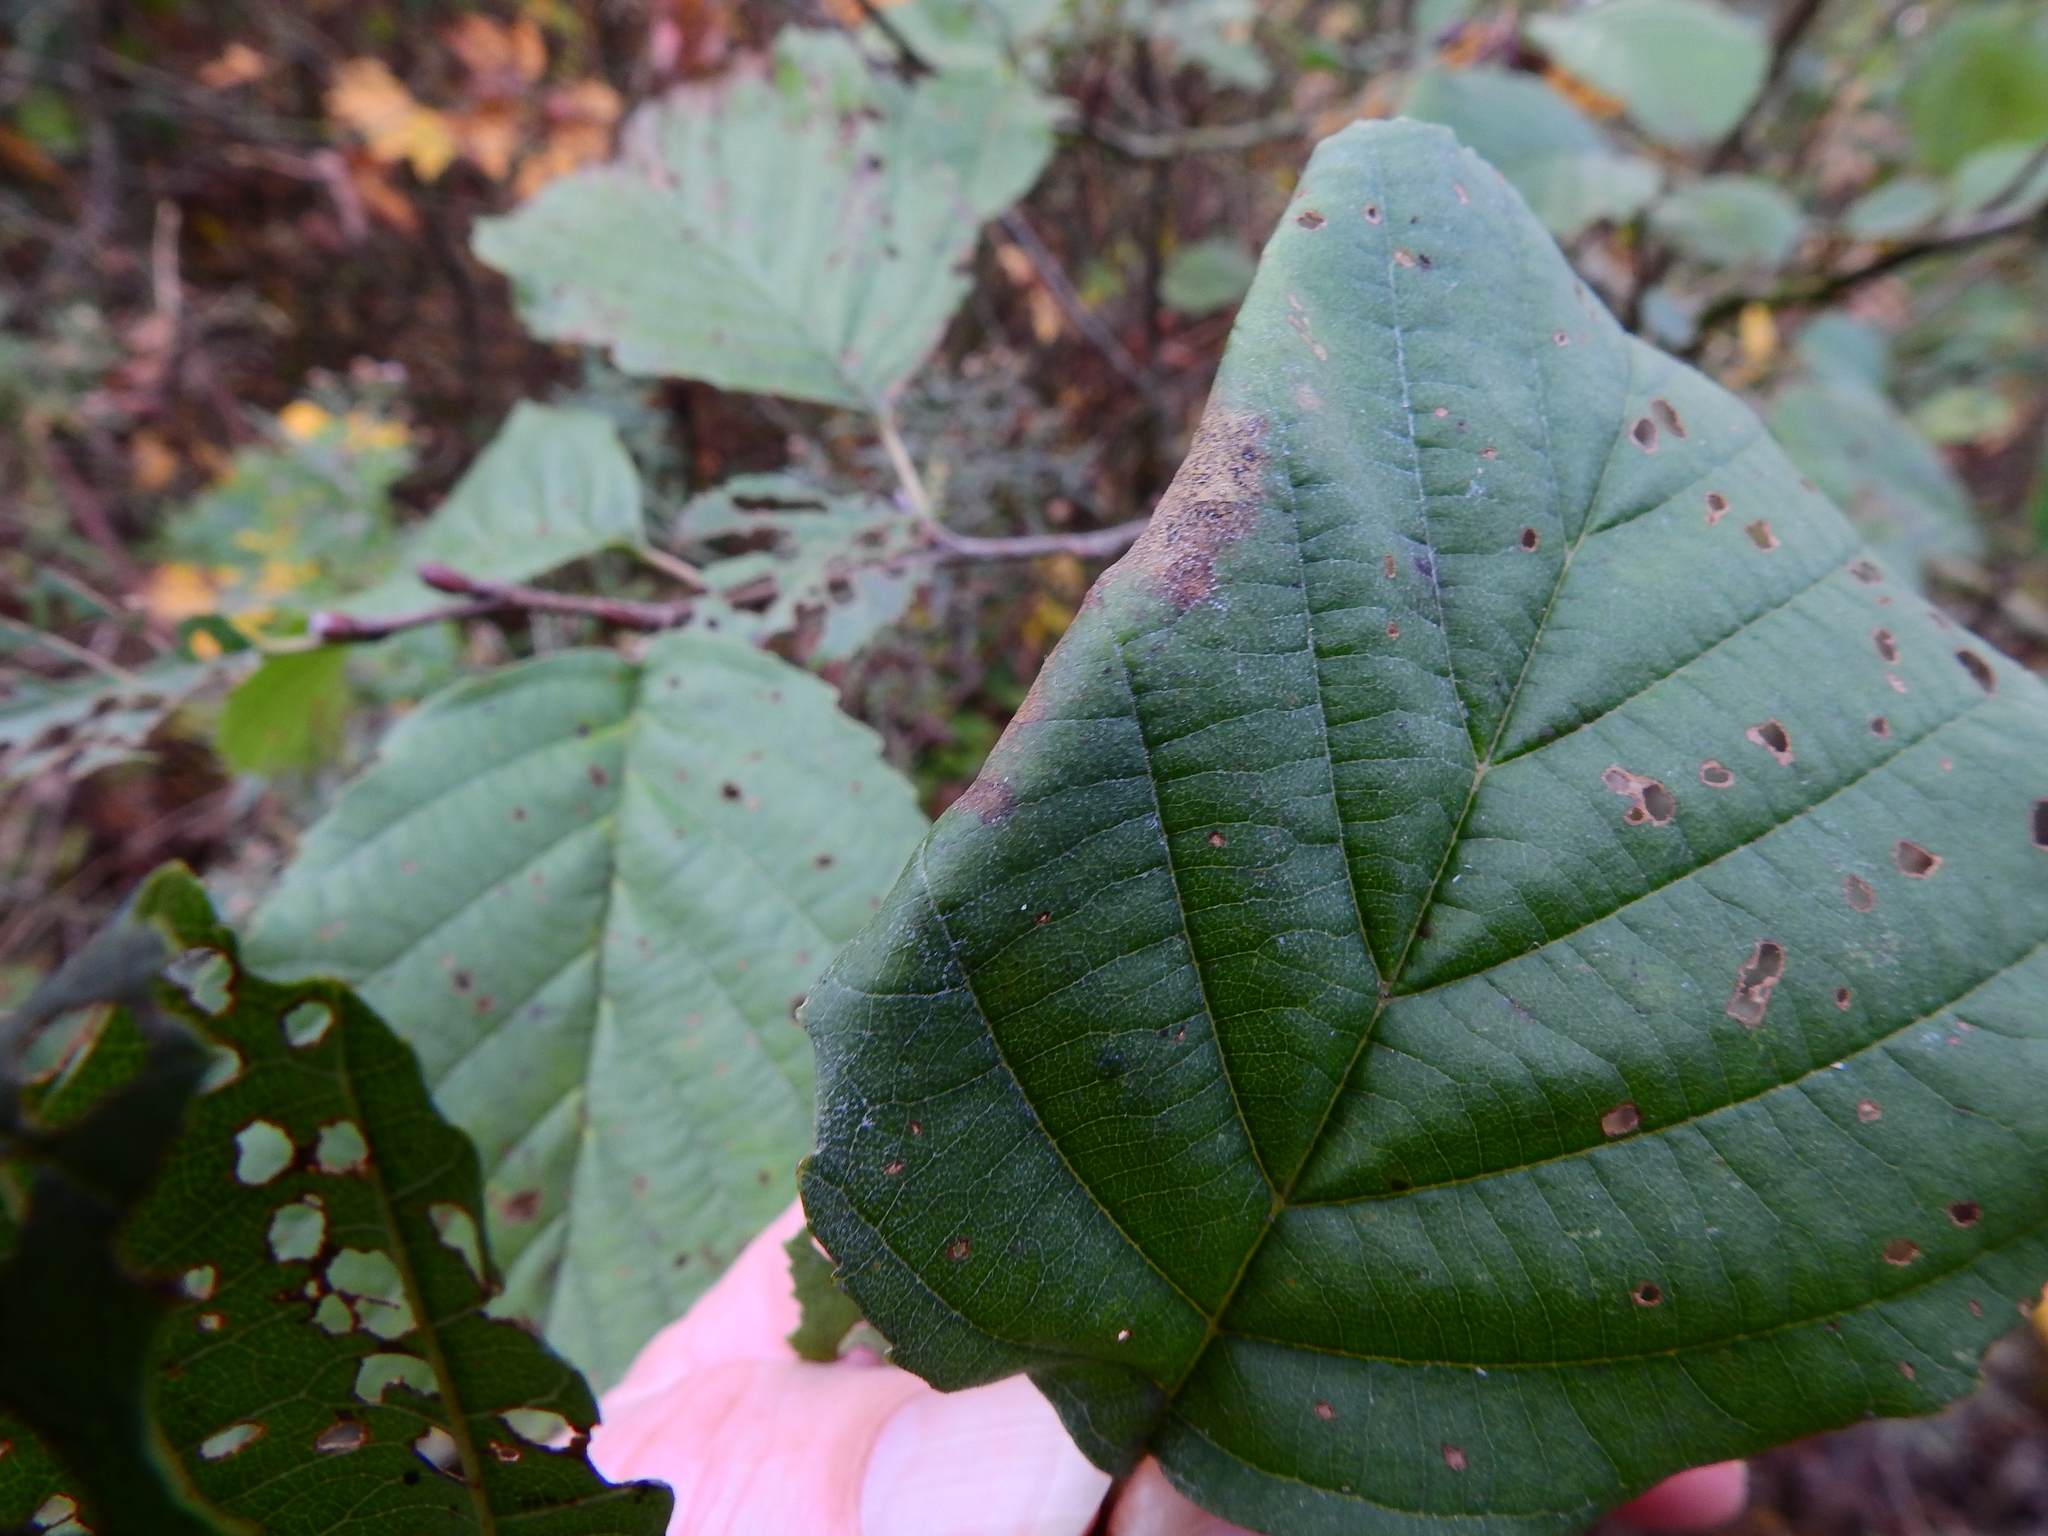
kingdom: Animalia
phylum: Arthropoda
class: Insecta
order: Lepidoptera
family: Gracillariidae
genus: Caloptilia
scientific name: Caloptilia elongella
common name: Pale red slender
